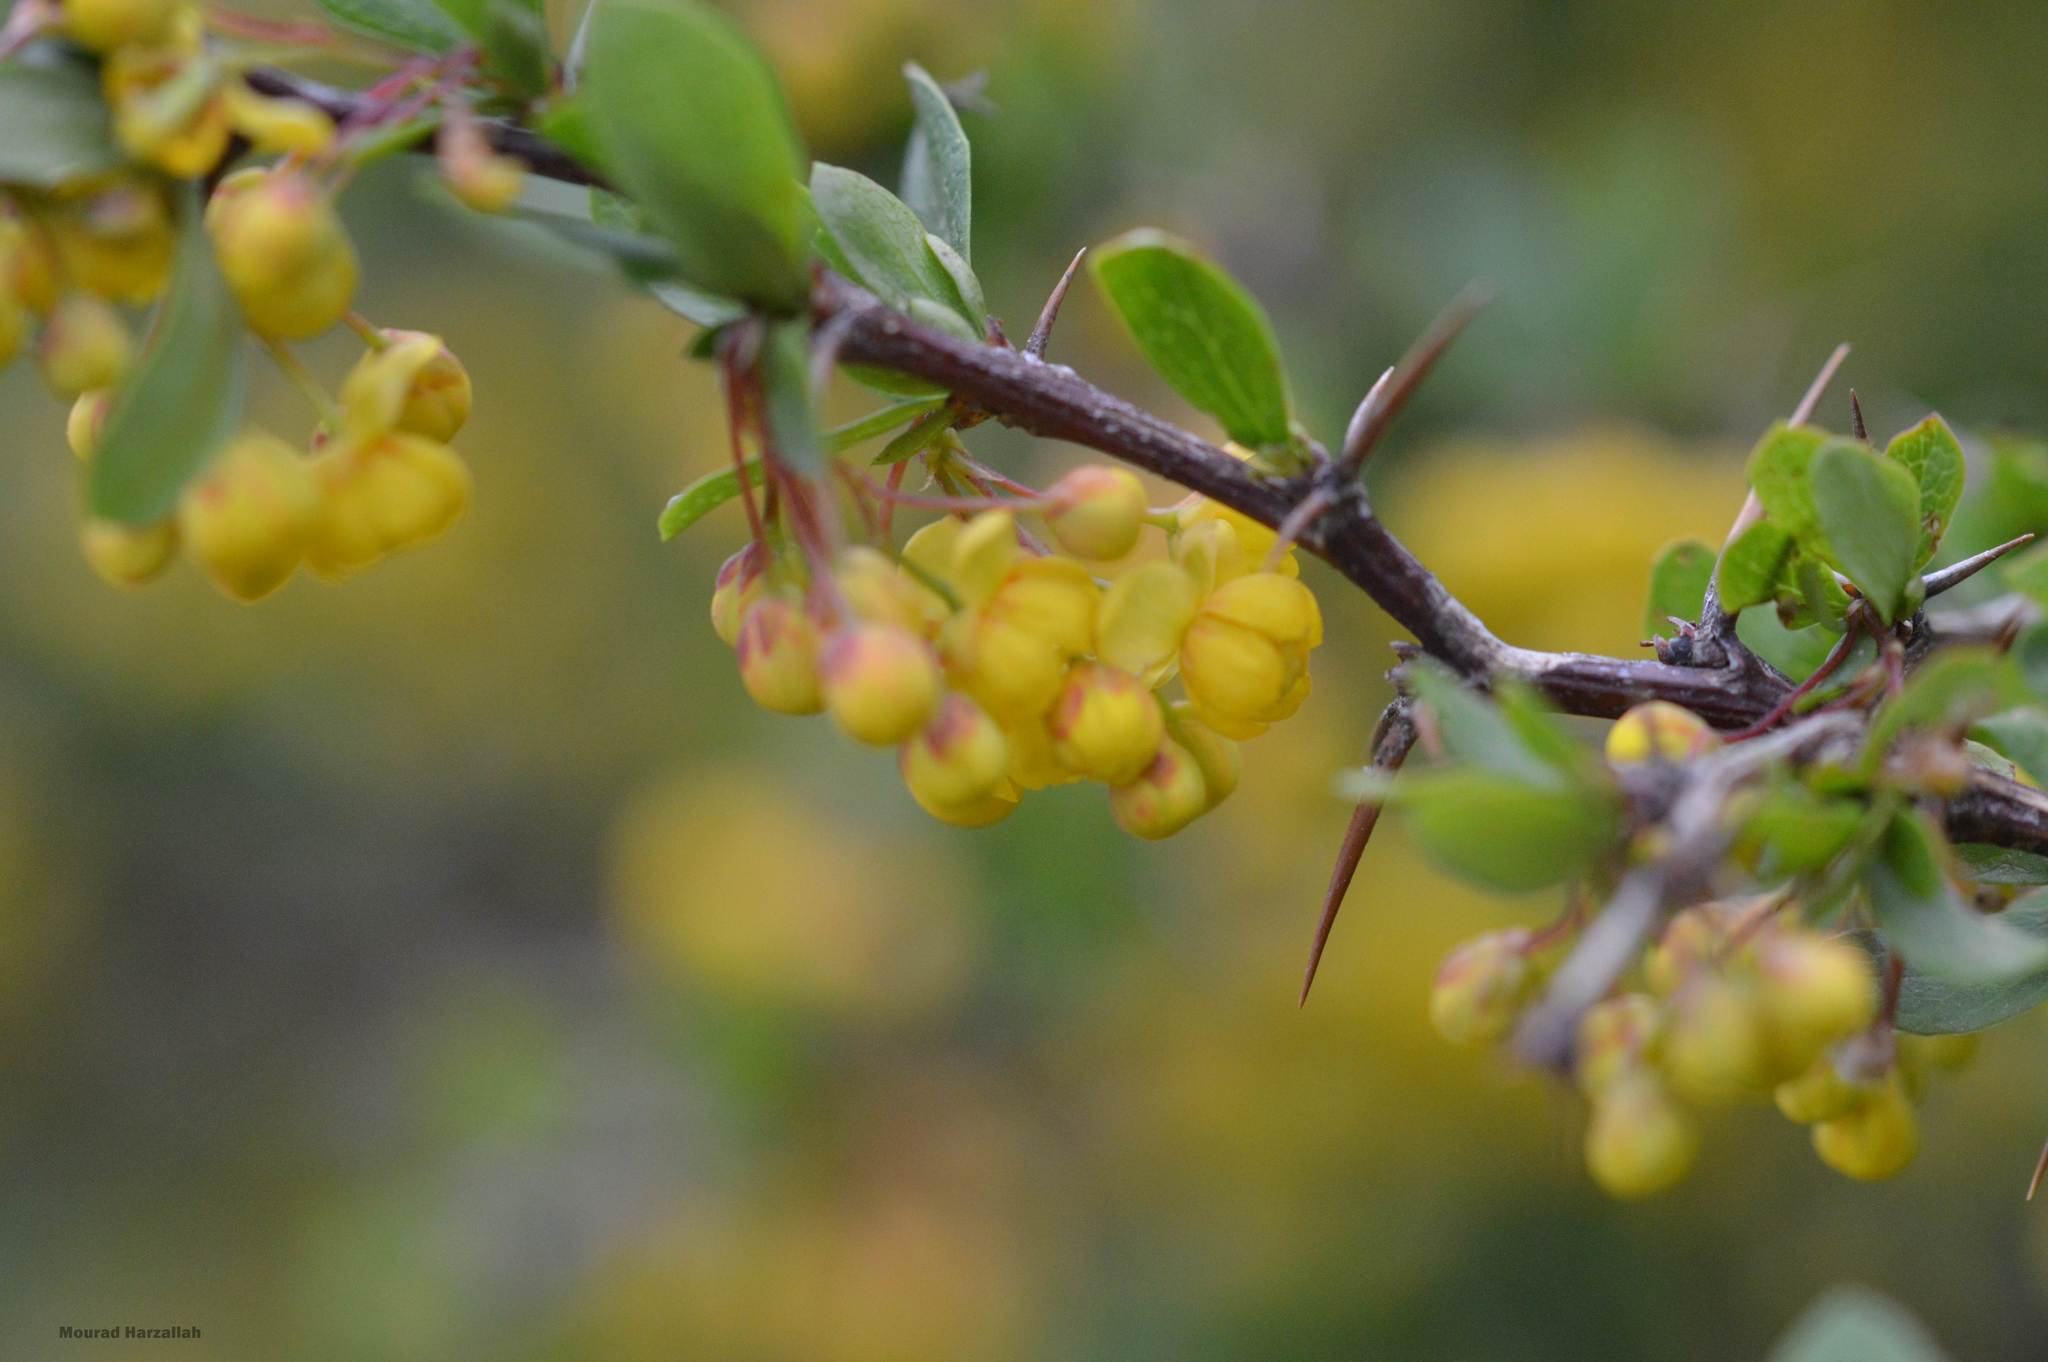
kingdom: Plantae
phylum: Tracheophyta
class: Magnoliopsida
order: Ranunculales
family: Berberidaceae
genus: Berberis
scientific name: Berberis hispanica
